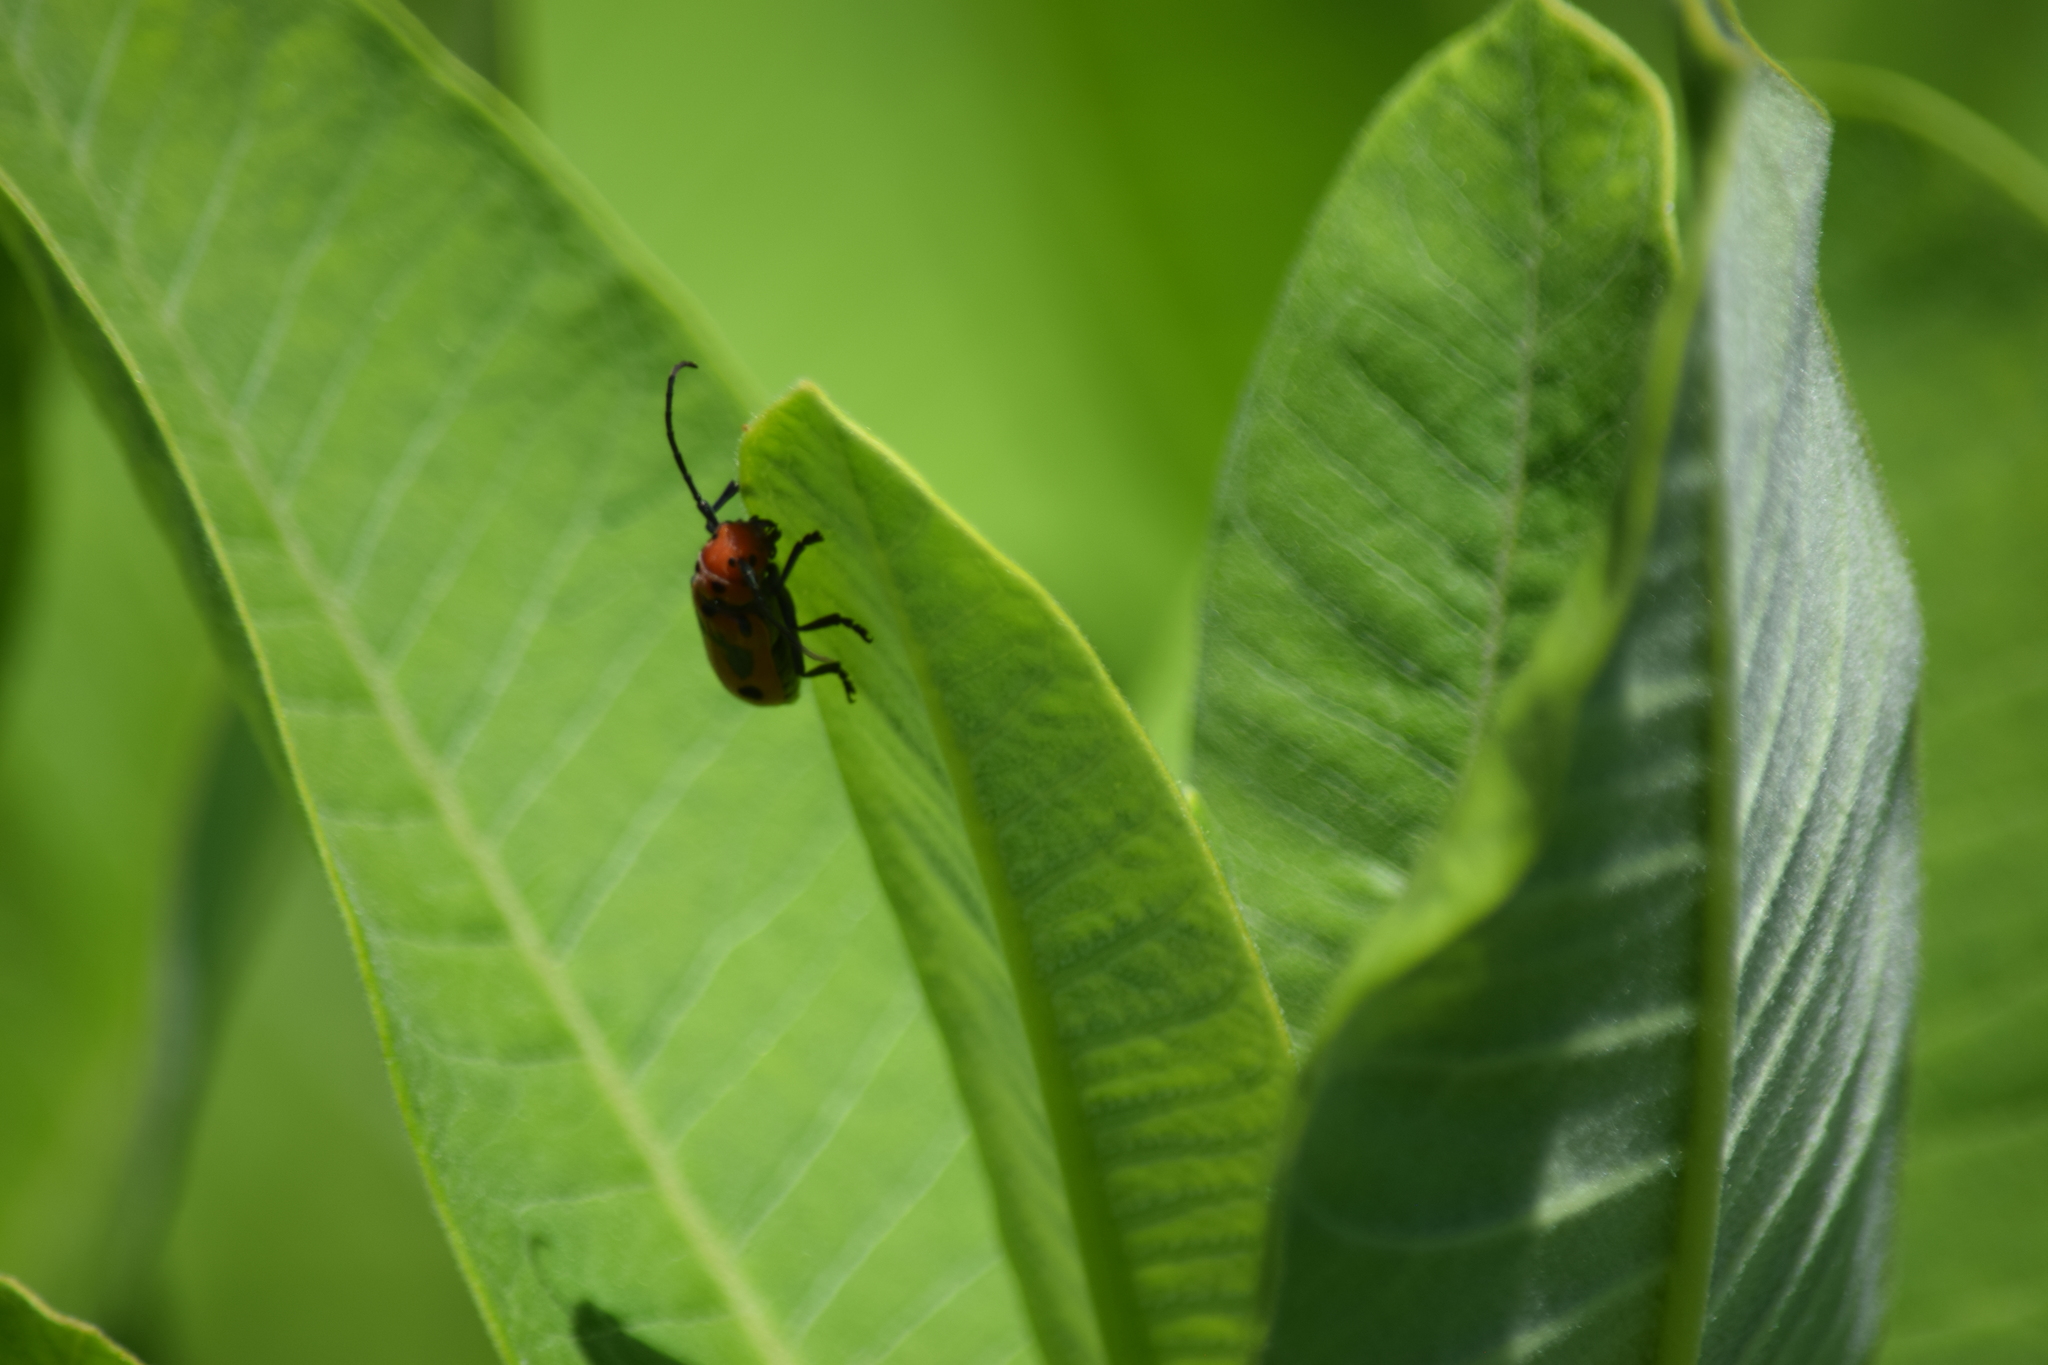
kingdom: Animalia
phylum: Arthropoda
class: Insecta
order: Coleoptera
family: Cerambycidae
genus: Tetraopes
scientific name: Tetraopes tetrophthalmus
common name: Red milkweed beetle
